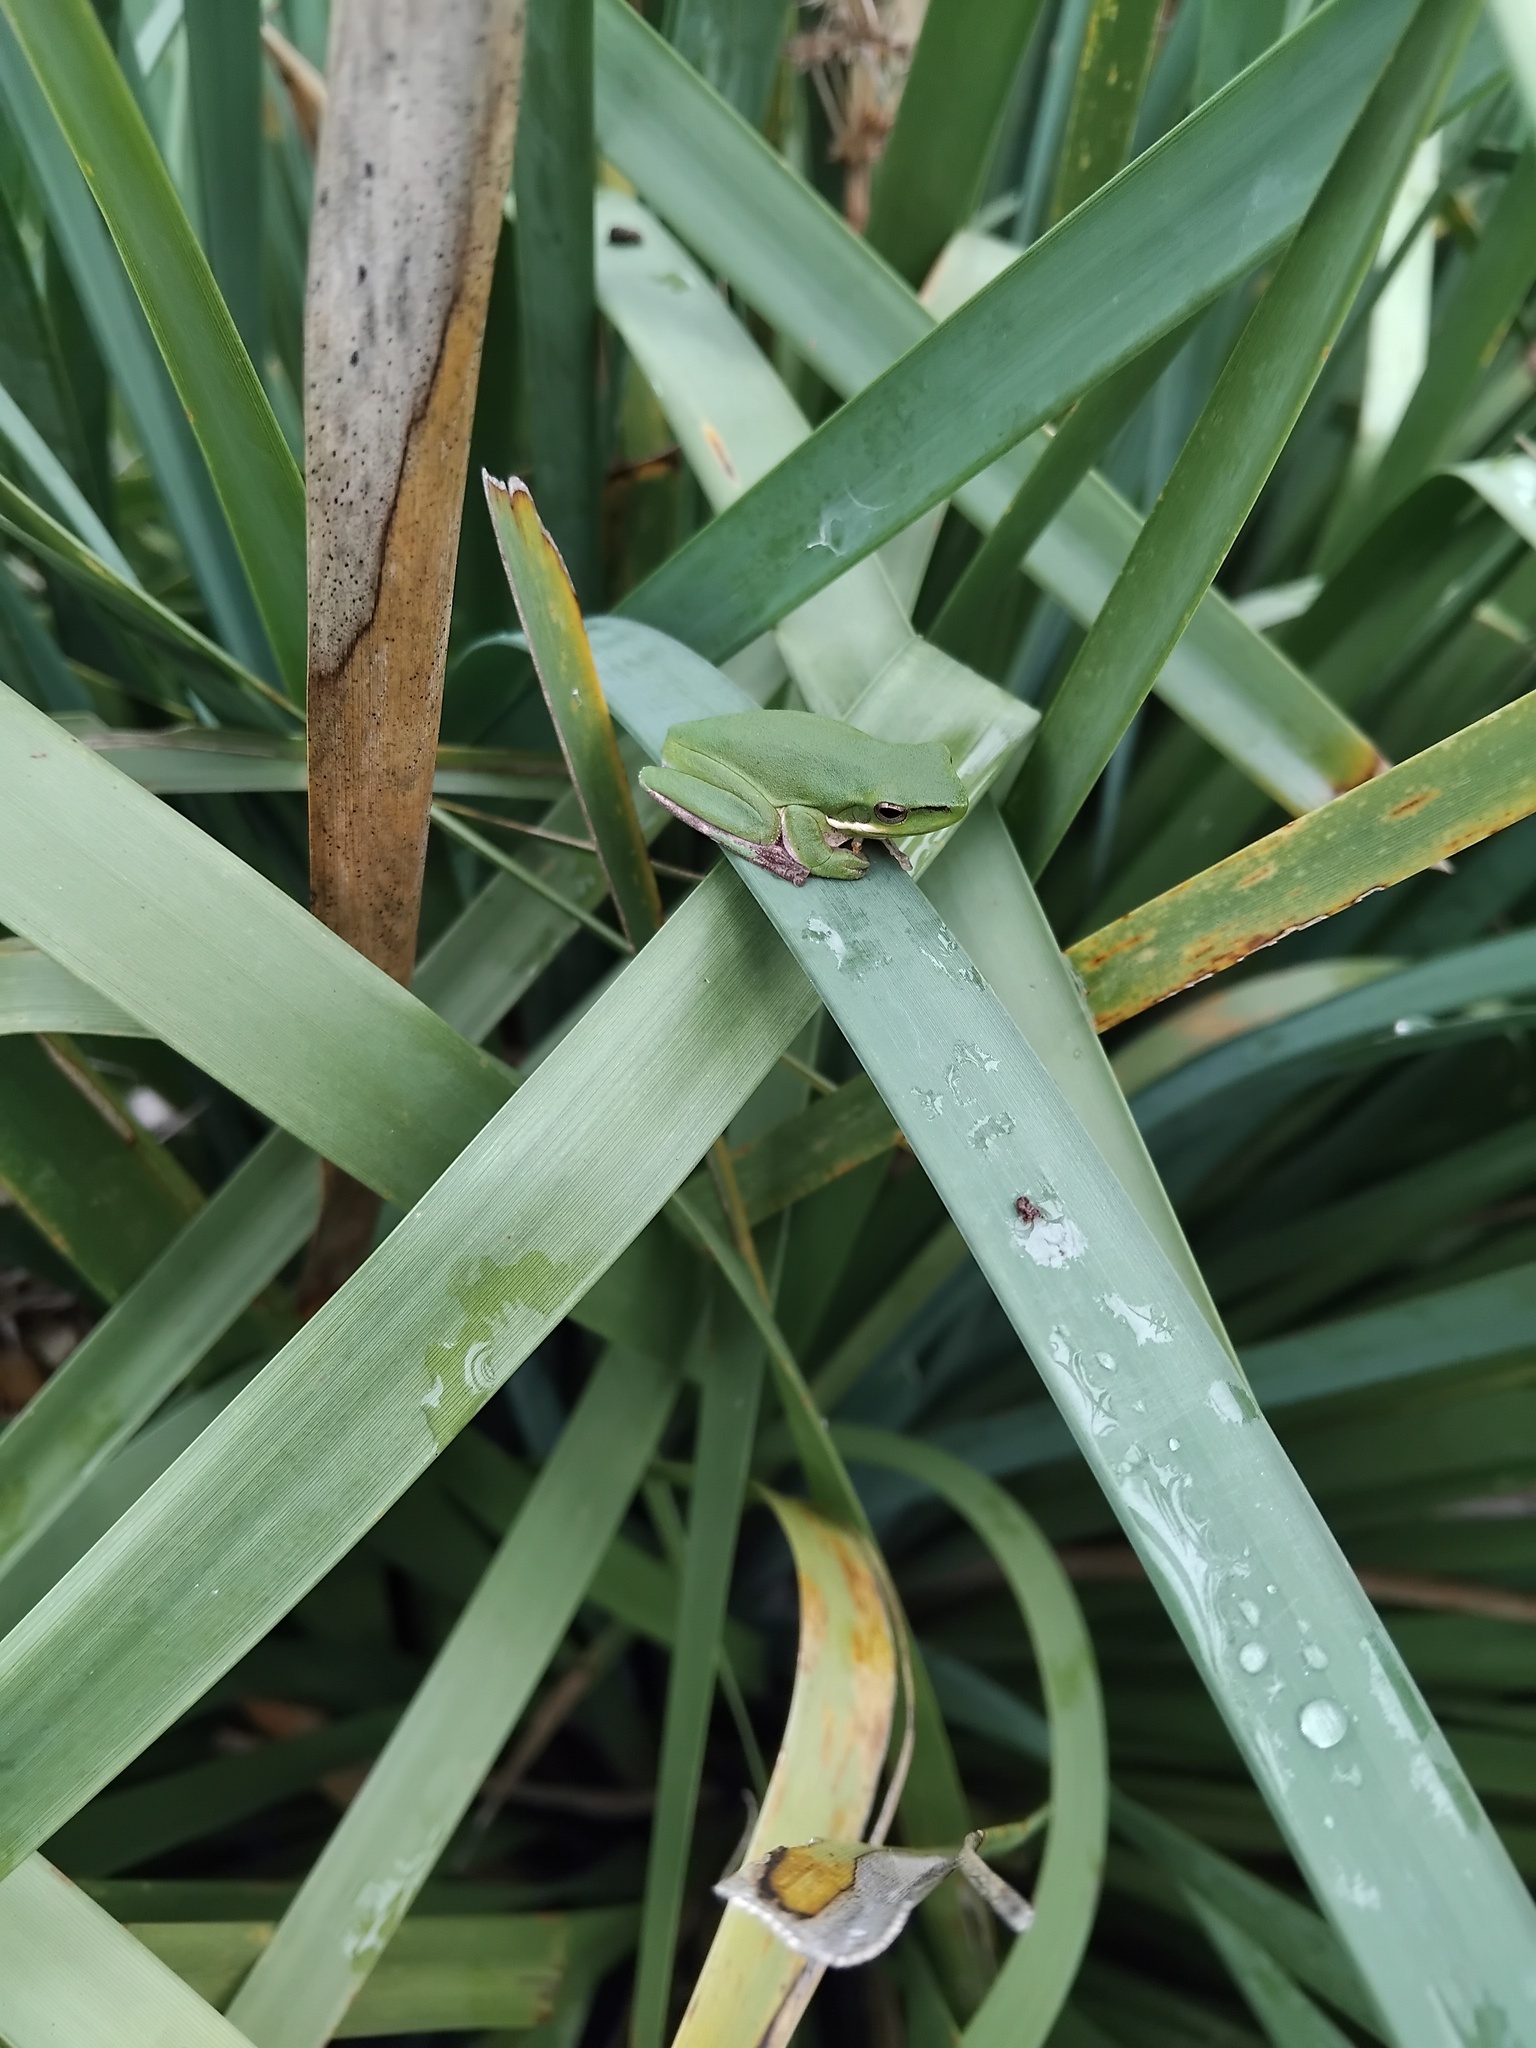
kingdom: Animalia
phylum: Chordata
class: Amphibia
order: Anura
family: Pelodryadidae
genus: Litoria
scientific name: Litoria fallax
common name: Eastern dwarf treefrog
